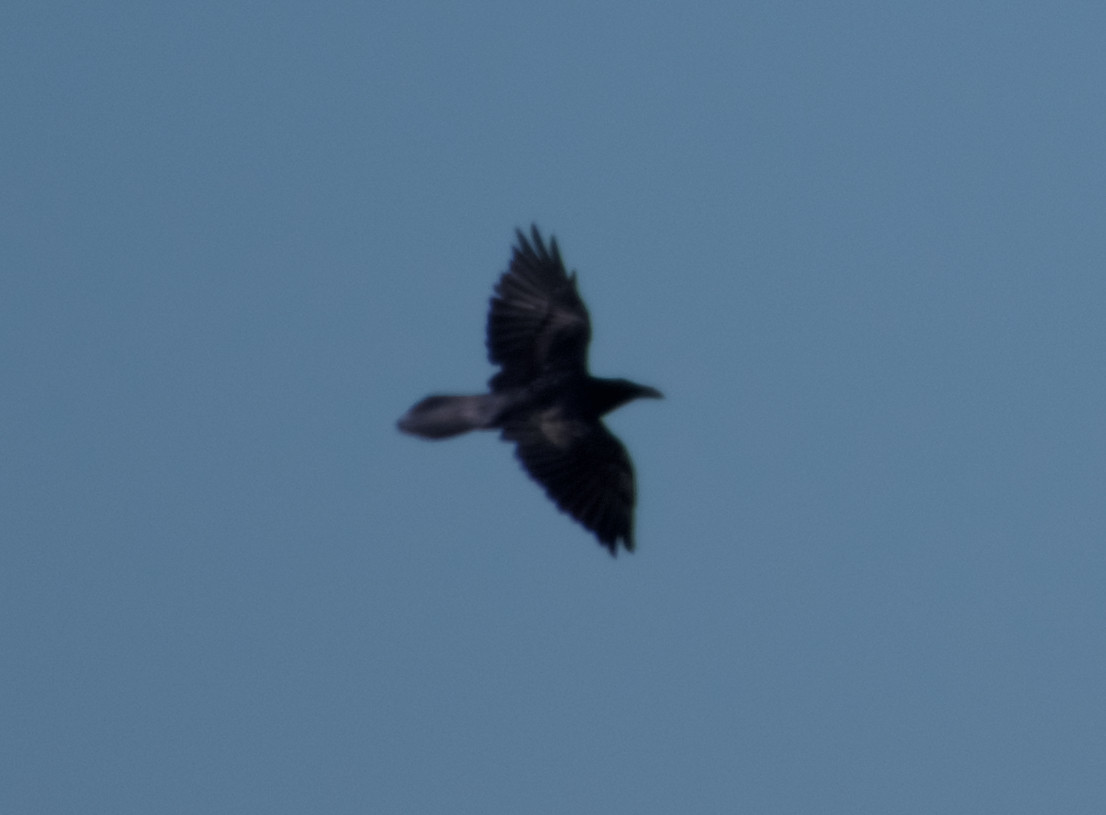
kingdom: Animalia
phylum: Chordata
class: Aves
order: Passeriformes
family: Corvidae
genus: Corvus
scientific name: Corvus corax
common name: Common raven
